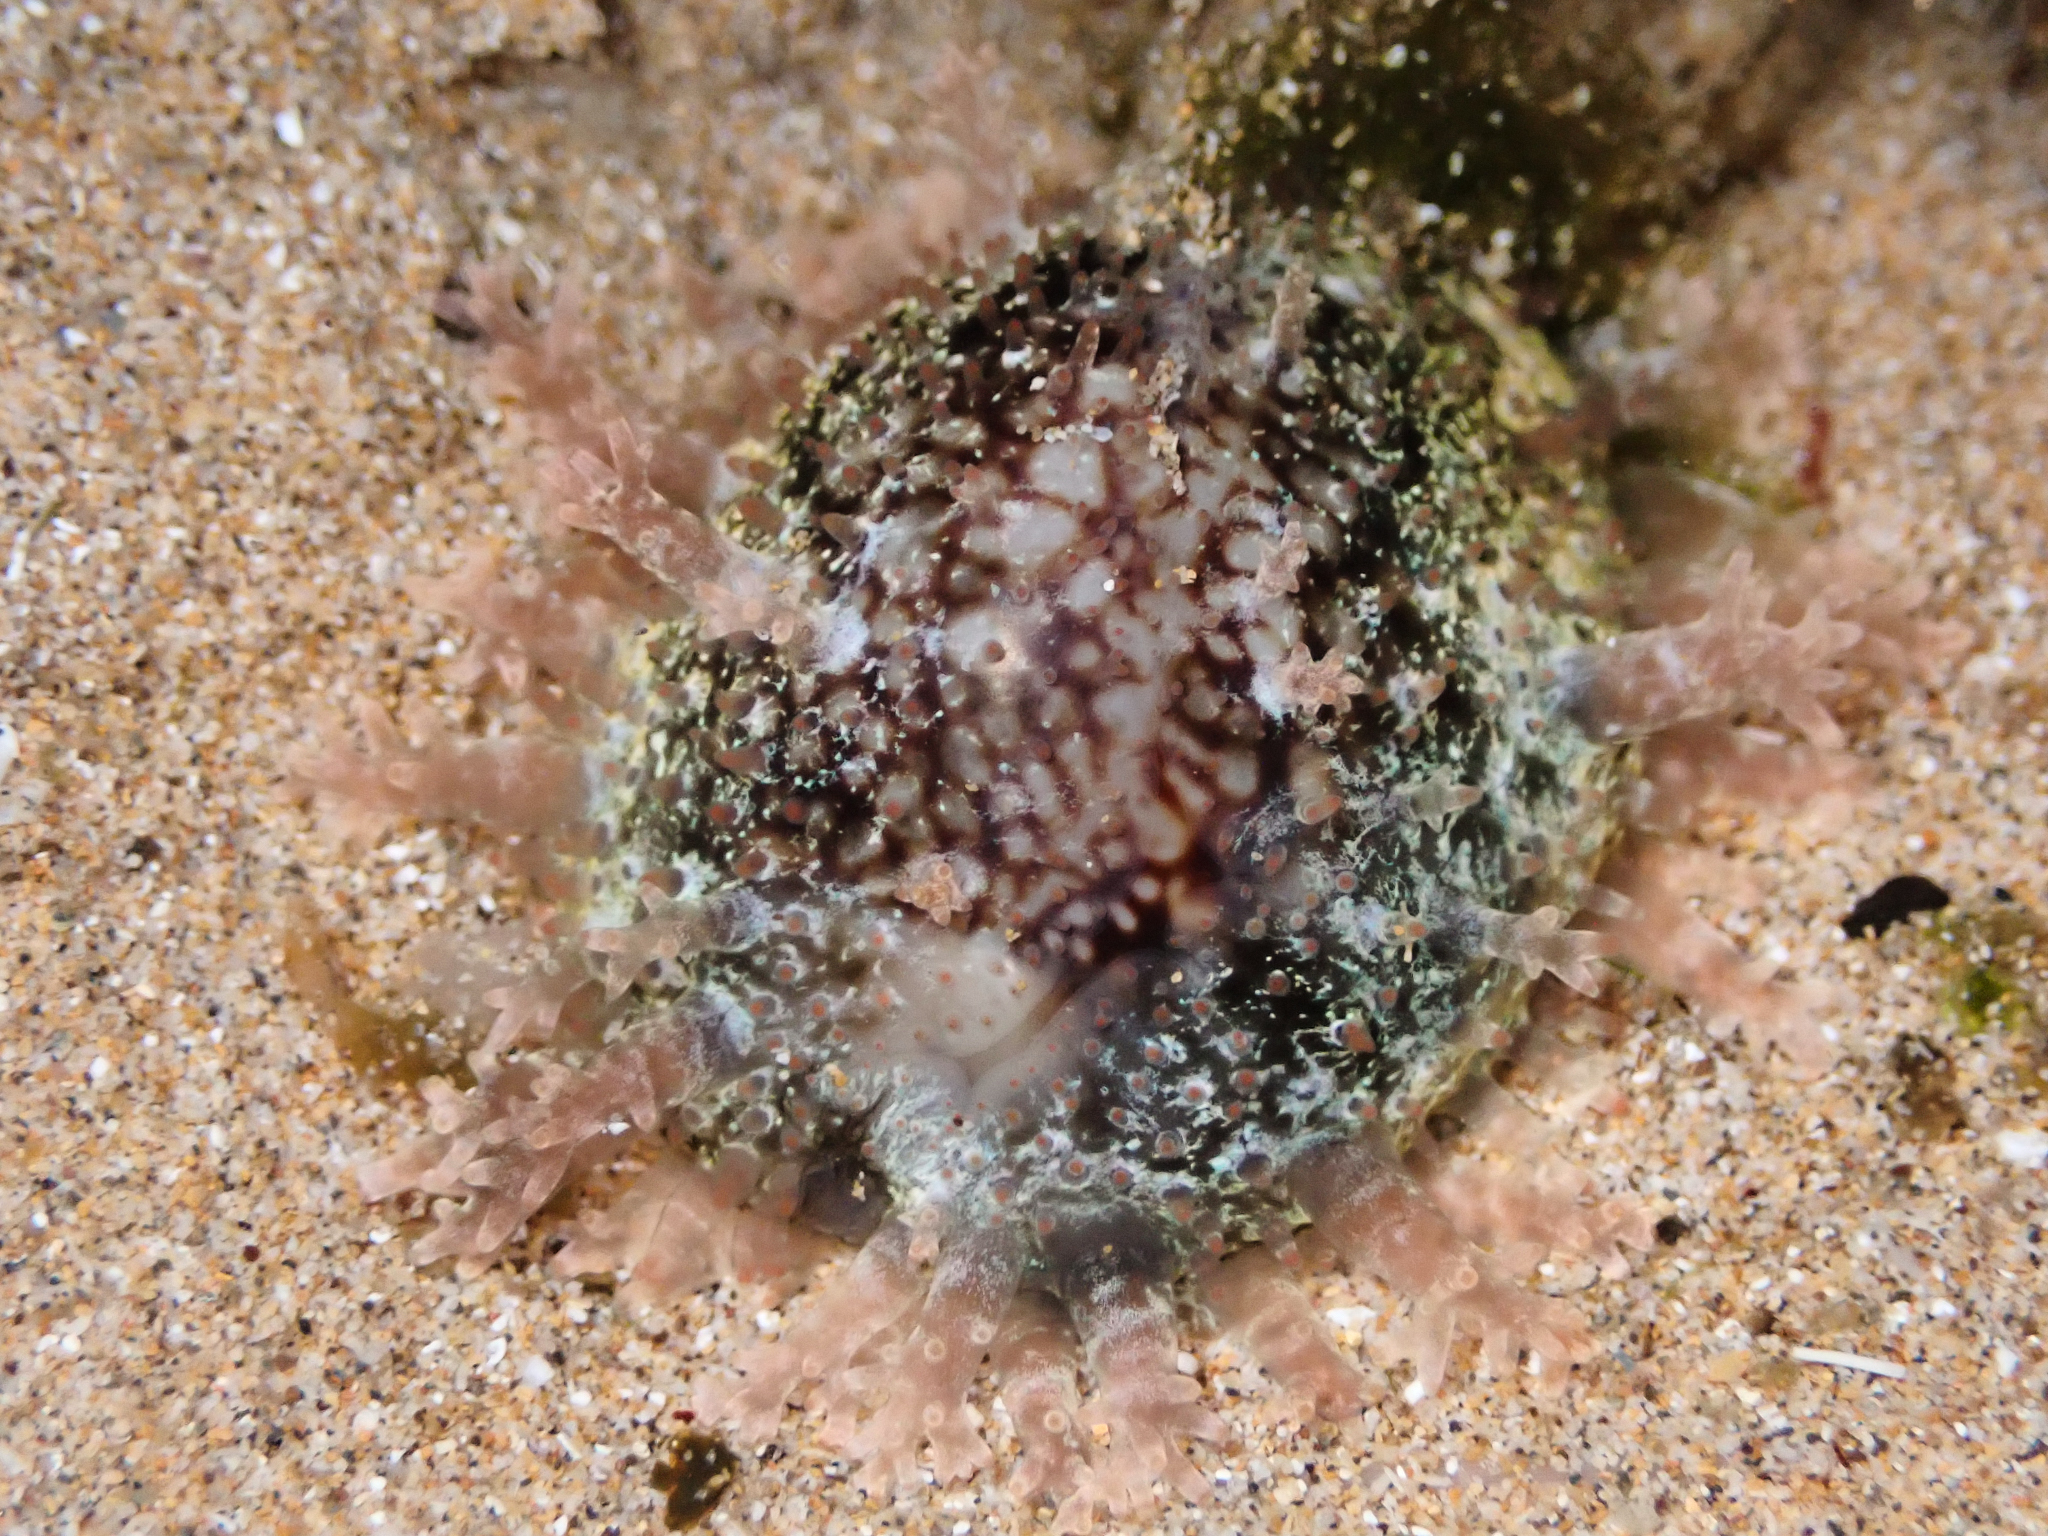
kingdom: Animalia
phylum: Mollusca
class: Gastropoda
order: Littorinimorpha
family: Cypraeidae
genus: Monetaria
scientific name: Monetaria caputophidii
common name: Snake's head cowry
